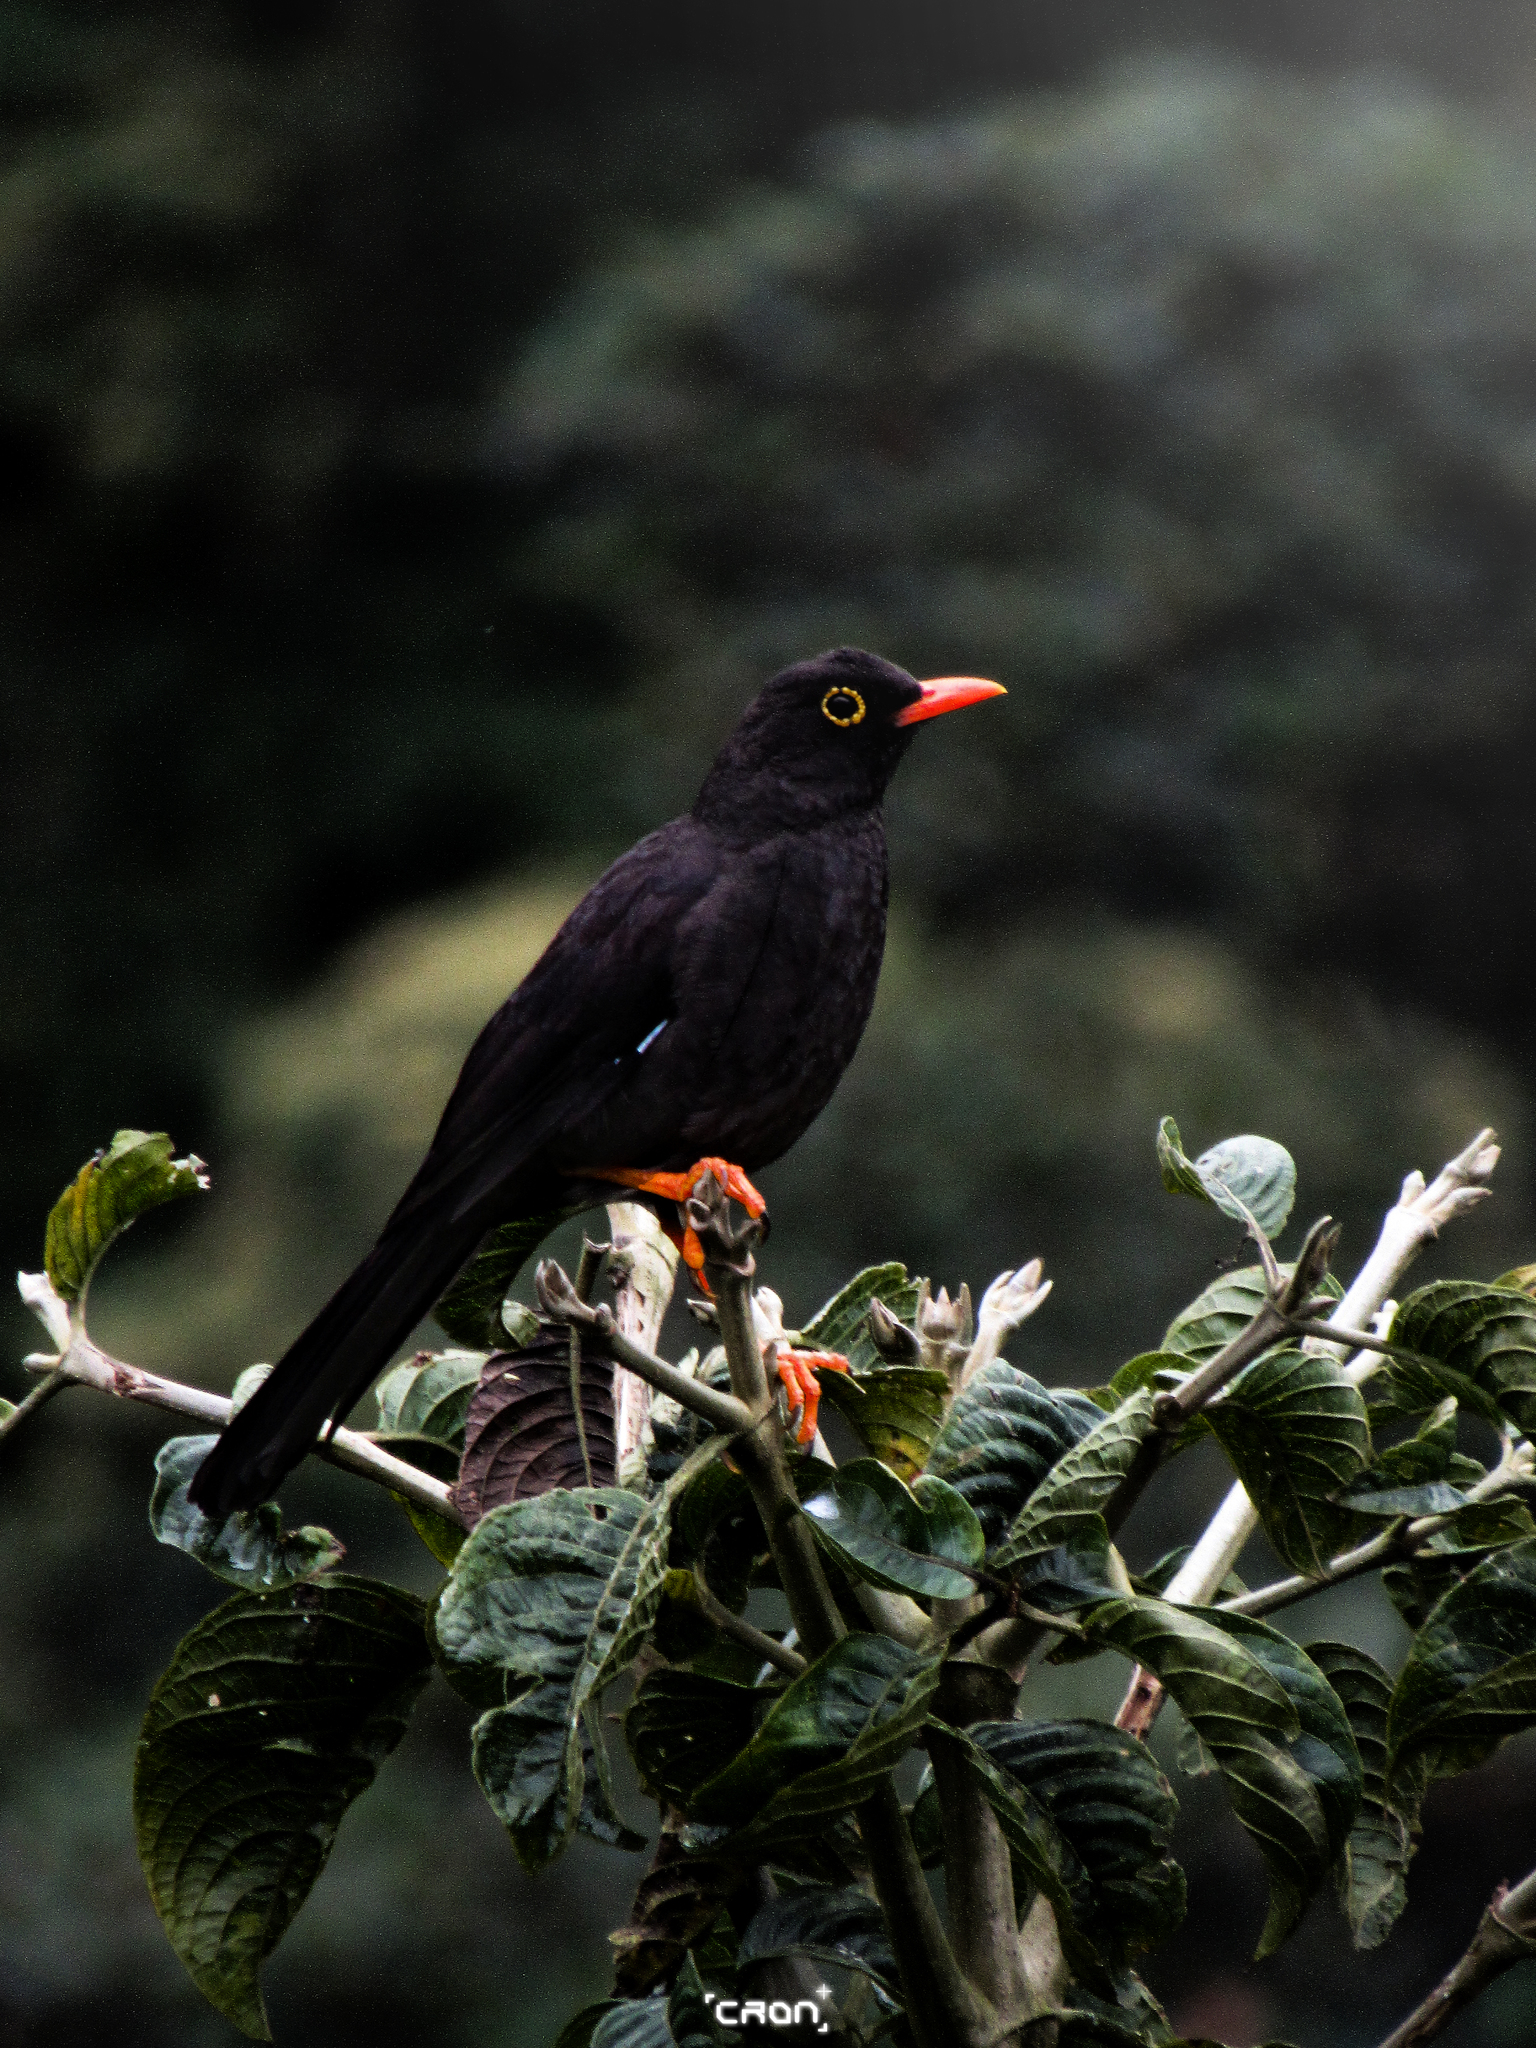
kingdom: Animalia
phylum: Chordata
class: Aves
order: Passeriformes
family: Turdidae
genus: Turdus
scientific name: Turdus fuscater
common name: Great thrush
